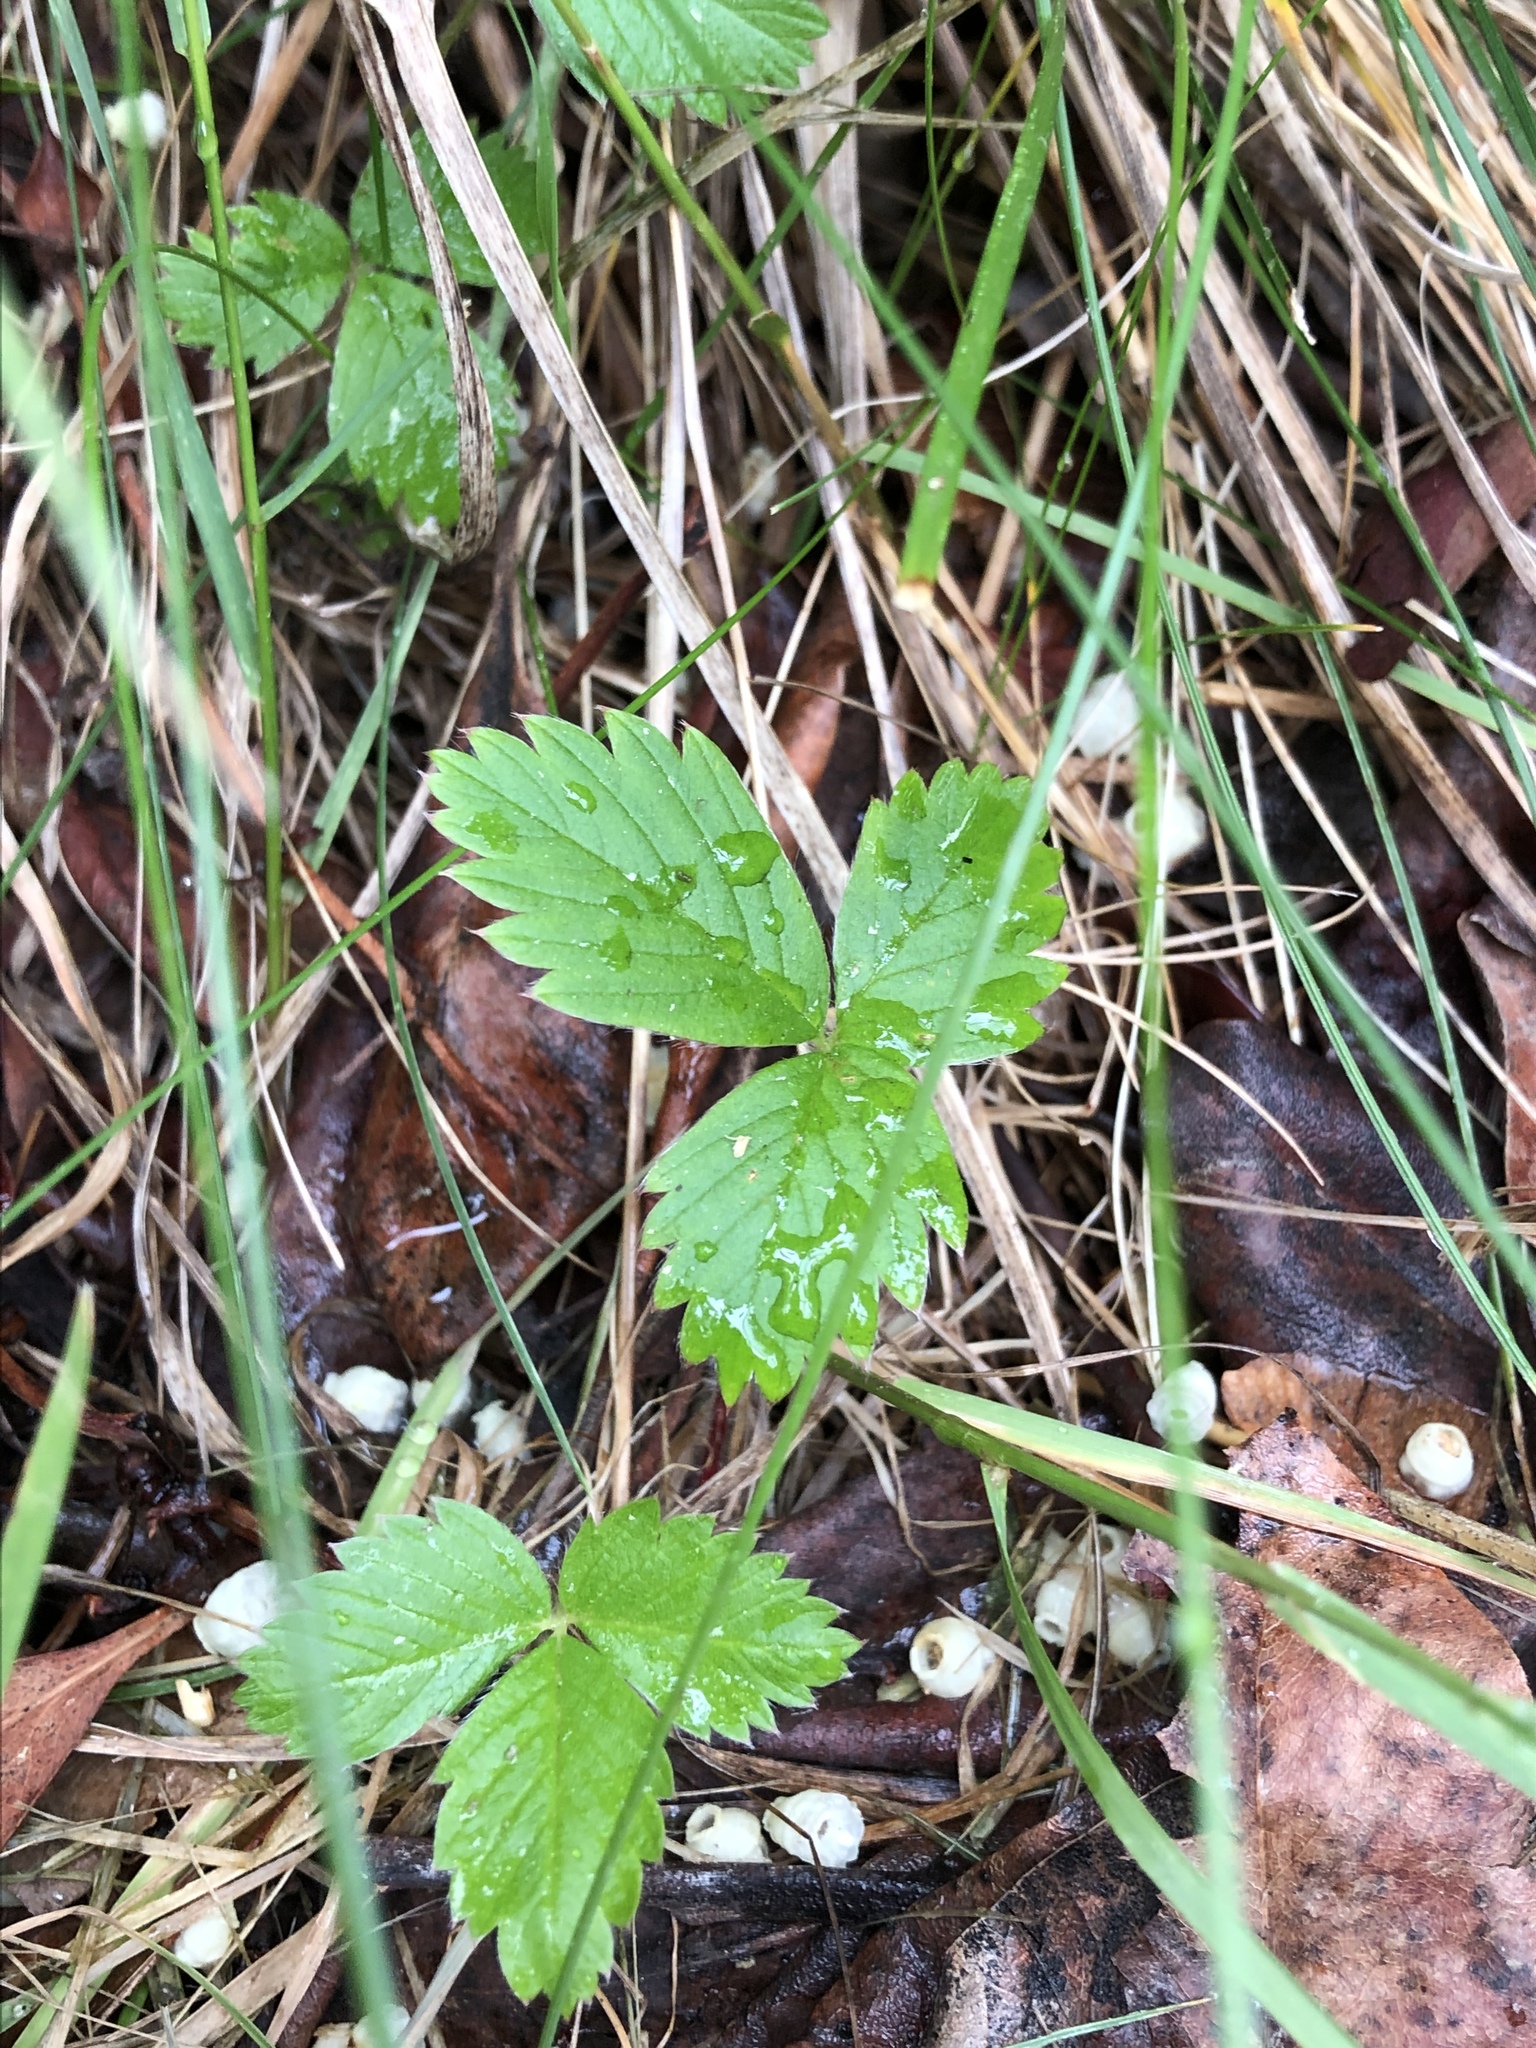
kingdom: Plantae
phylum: Tracheophyta
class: Magnoliopsida
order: Rosales
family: Rosaceae
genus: Fragaria
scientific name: Fragaria vesca
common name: Wild strawberry
